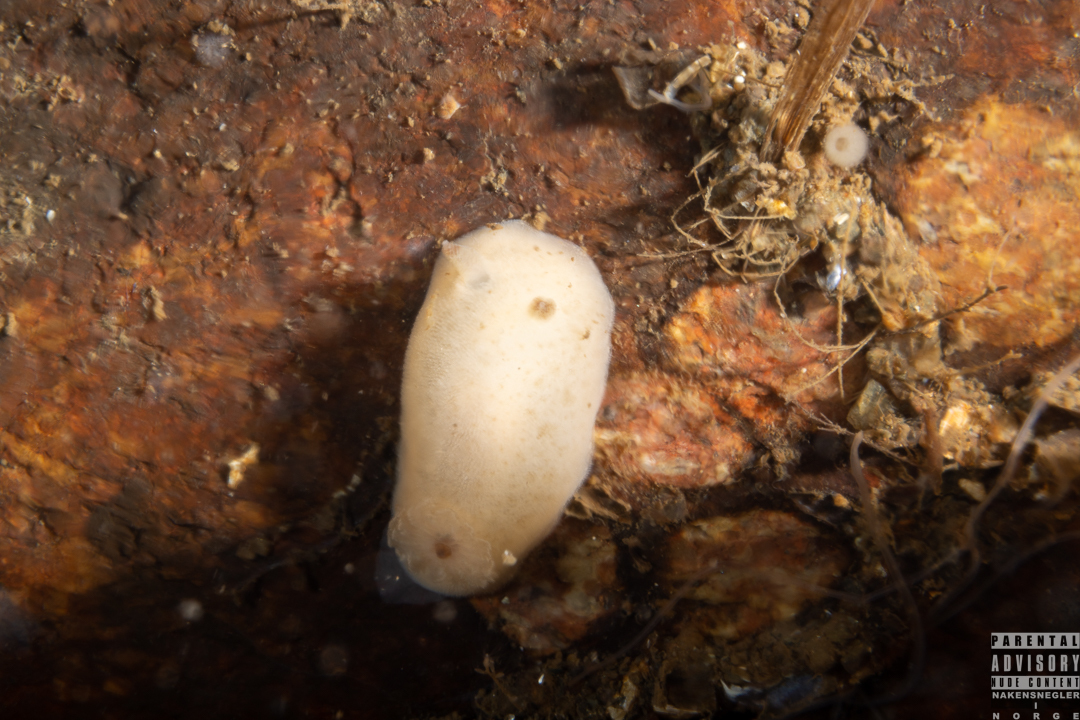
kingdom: Animalia
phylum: Mollusca
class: Gastropoda
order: Nudibranchia
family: Discodorididae
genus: Jorunna
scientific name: Jorunna tomentosa
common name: Grey sea slug
